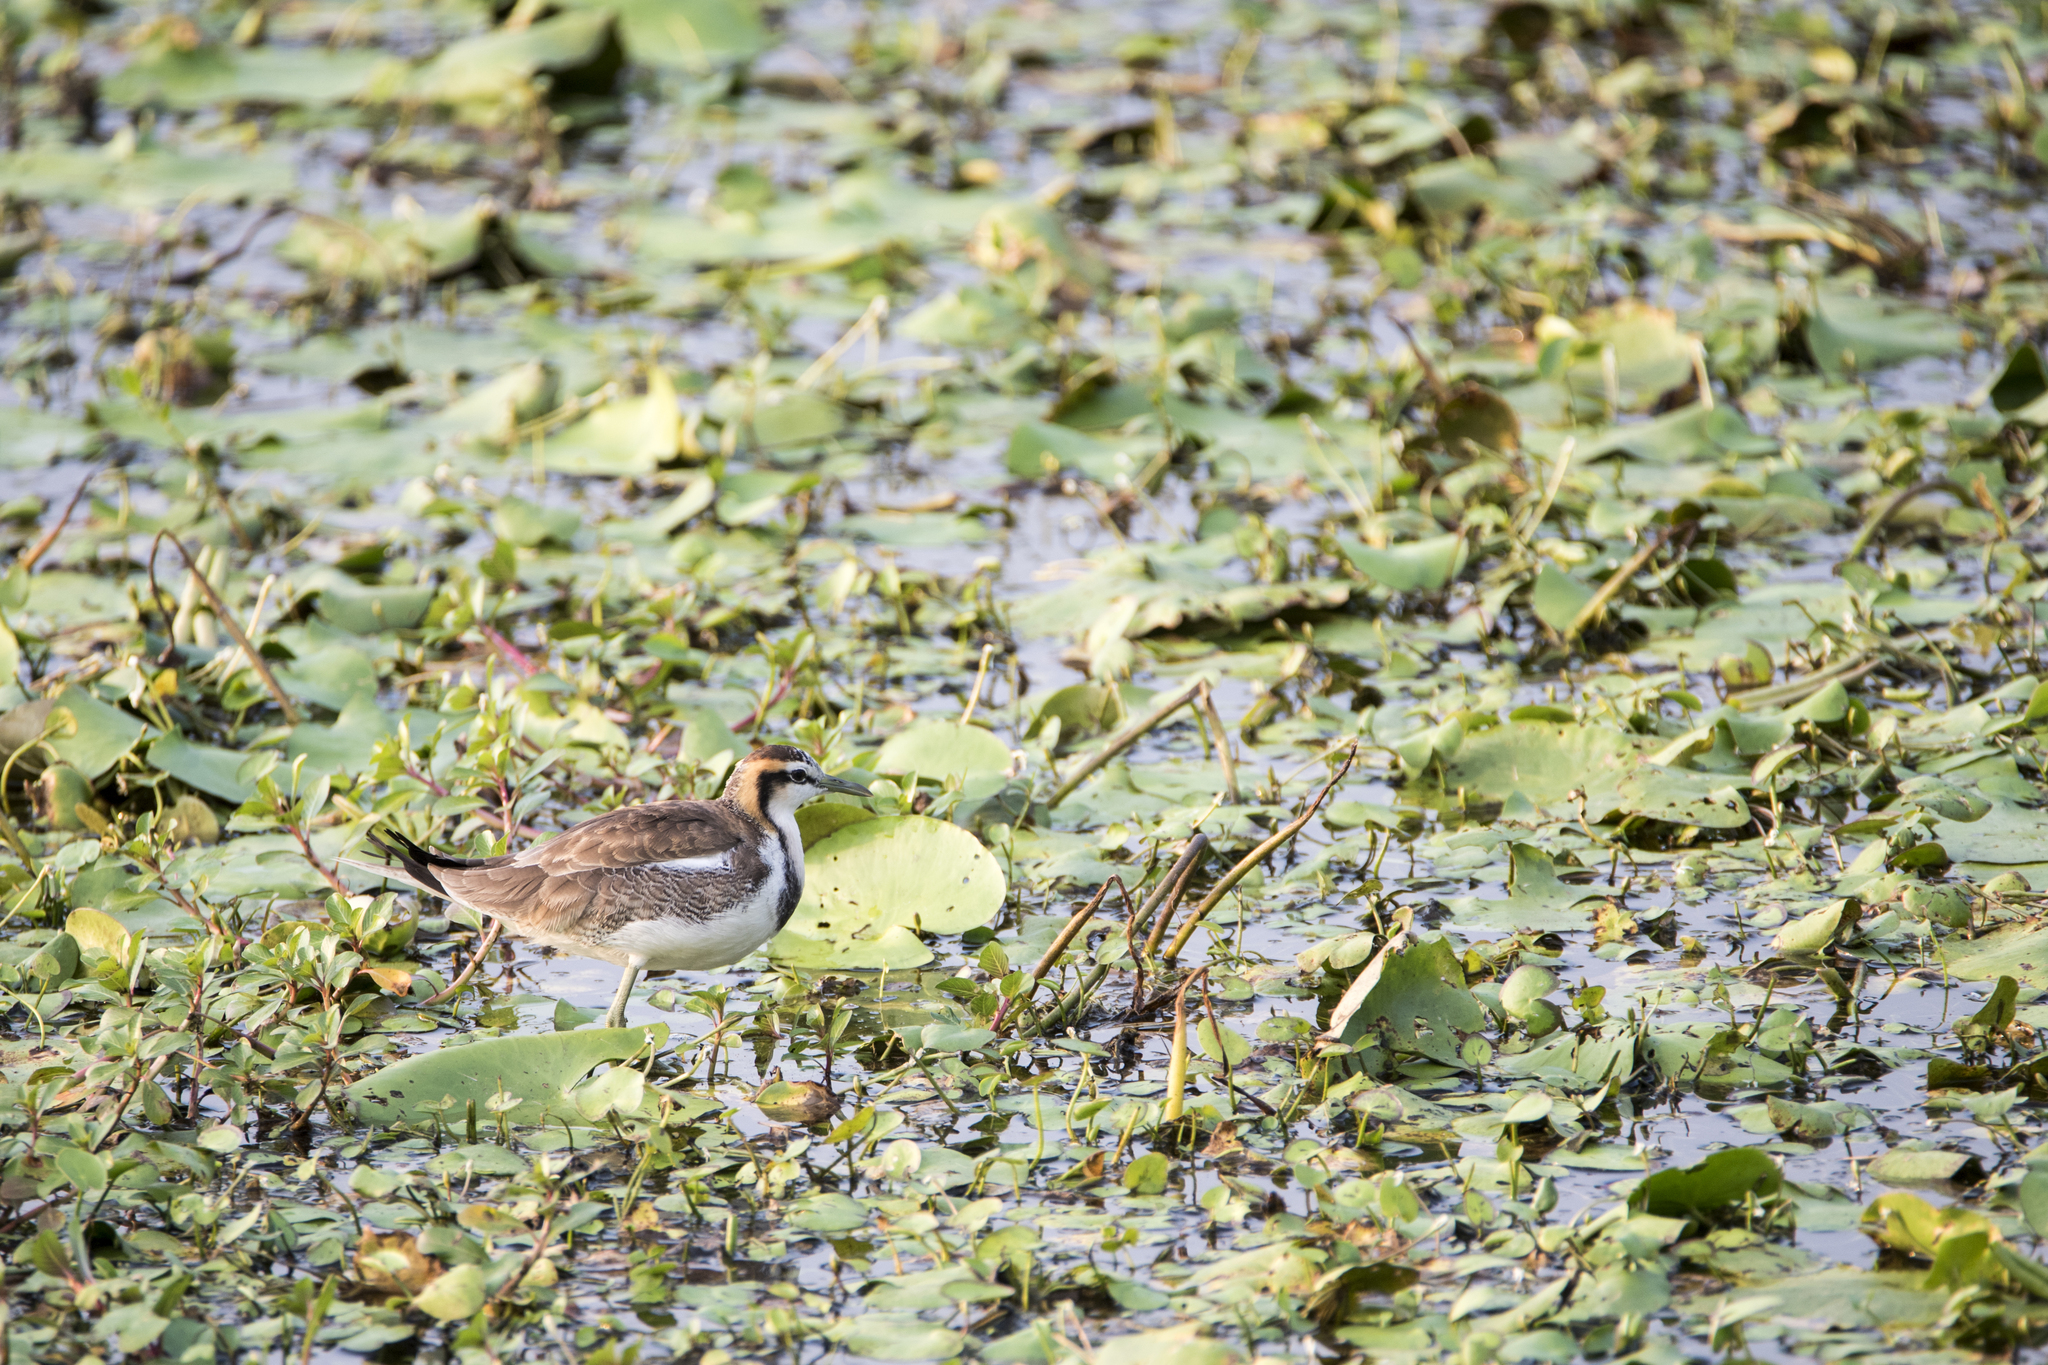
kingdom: Animalia
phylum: Chordata
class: Aves
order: Charadriiformes
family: Jacanidae
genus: Hydrophasianus
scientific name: Hydrophasianus chirurgus
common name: Pheasant-tailed jacana
